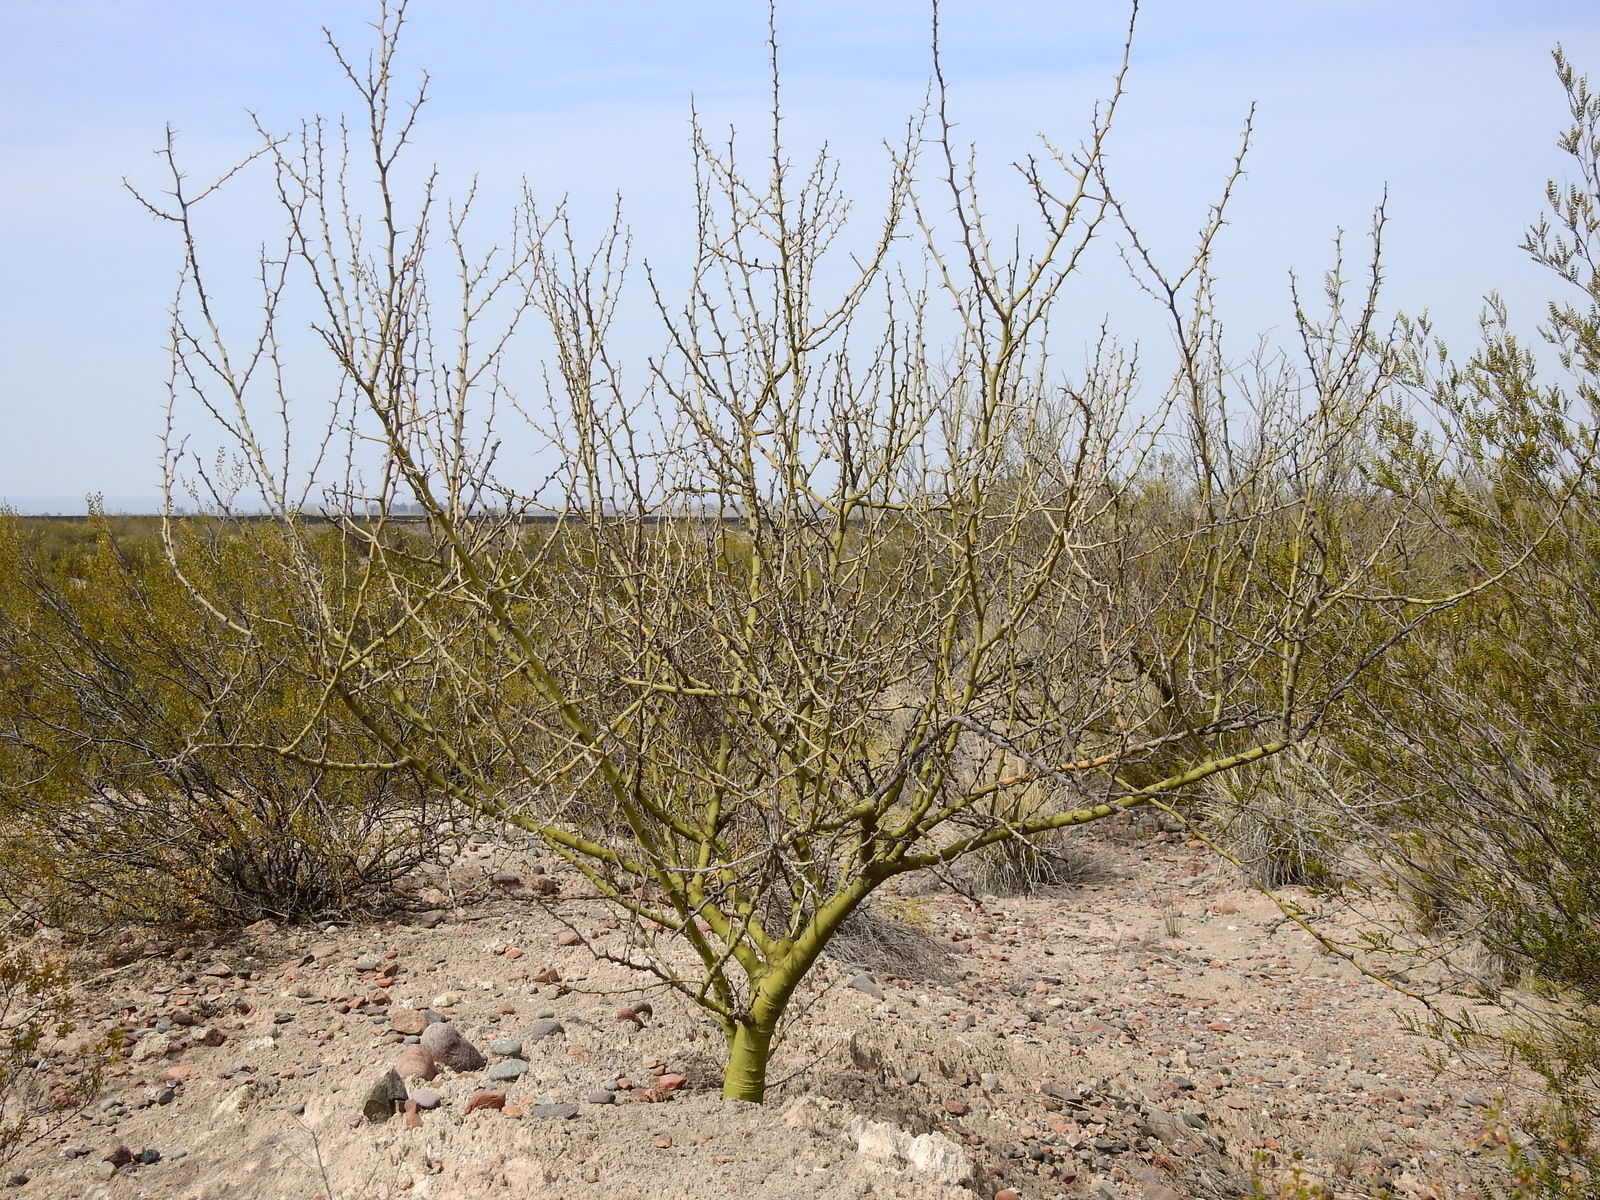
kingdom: Plantae
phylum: Tracheophyta
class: Magnoliopsida
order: Fabales
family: Fabaceae
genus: Parkinsonia
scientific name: Parkinsonia praecox
